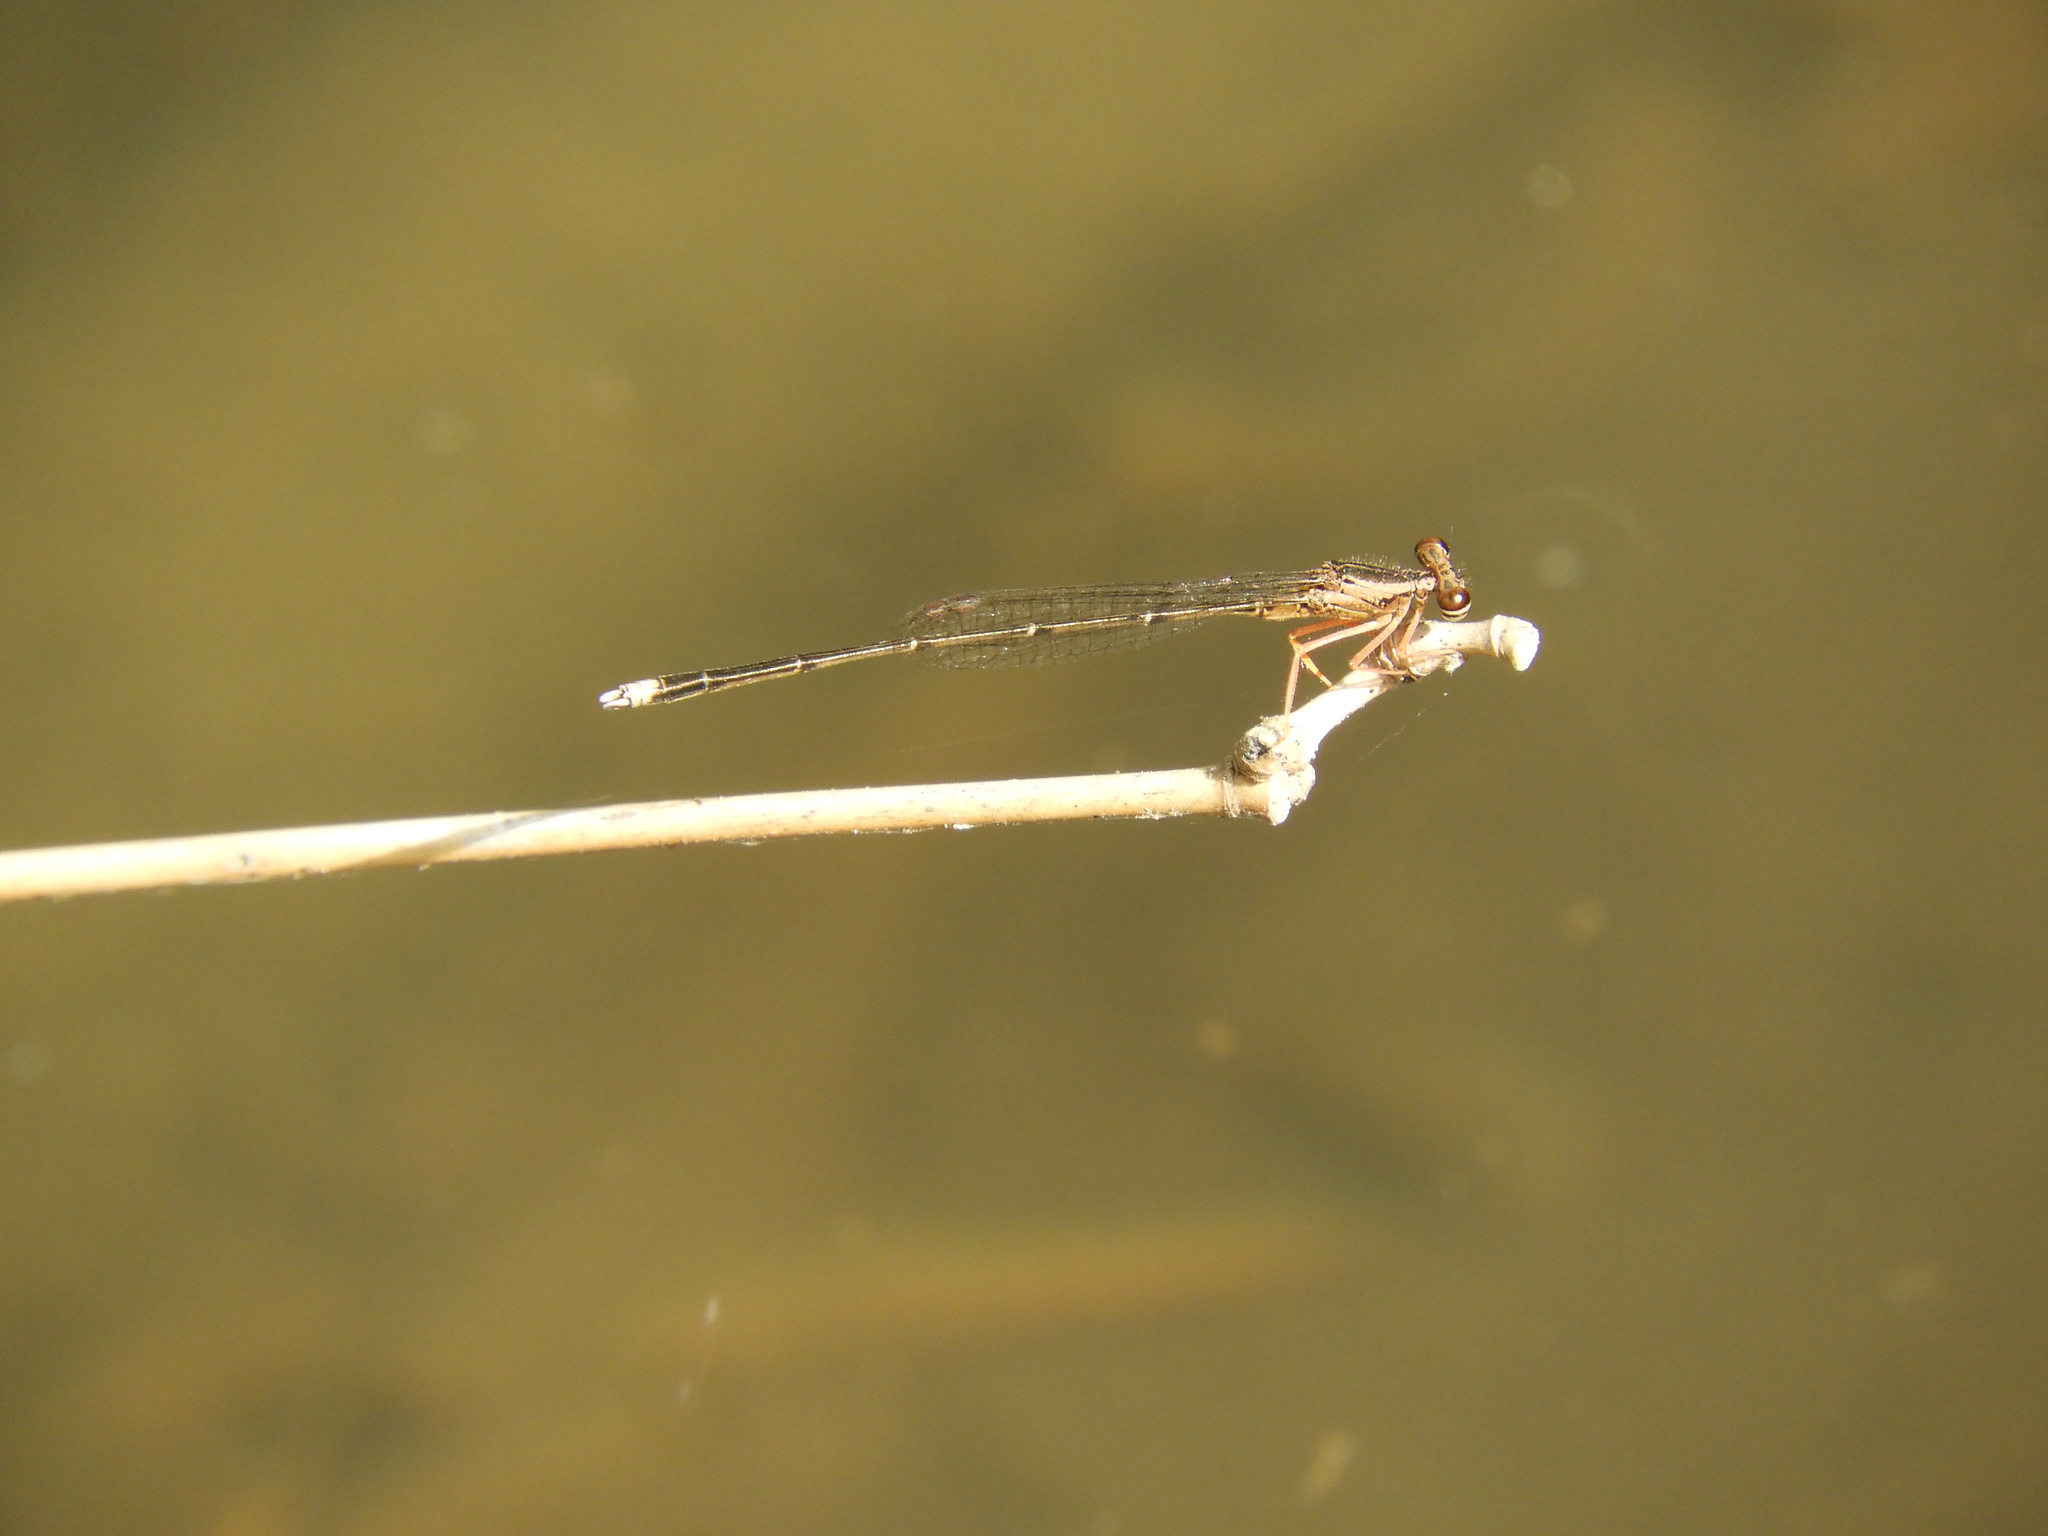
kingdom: Animalia
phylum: Arthropoda
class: Insecta
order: Odonata
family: Platycnemididae
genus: Copera
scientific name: Copera marginipes
